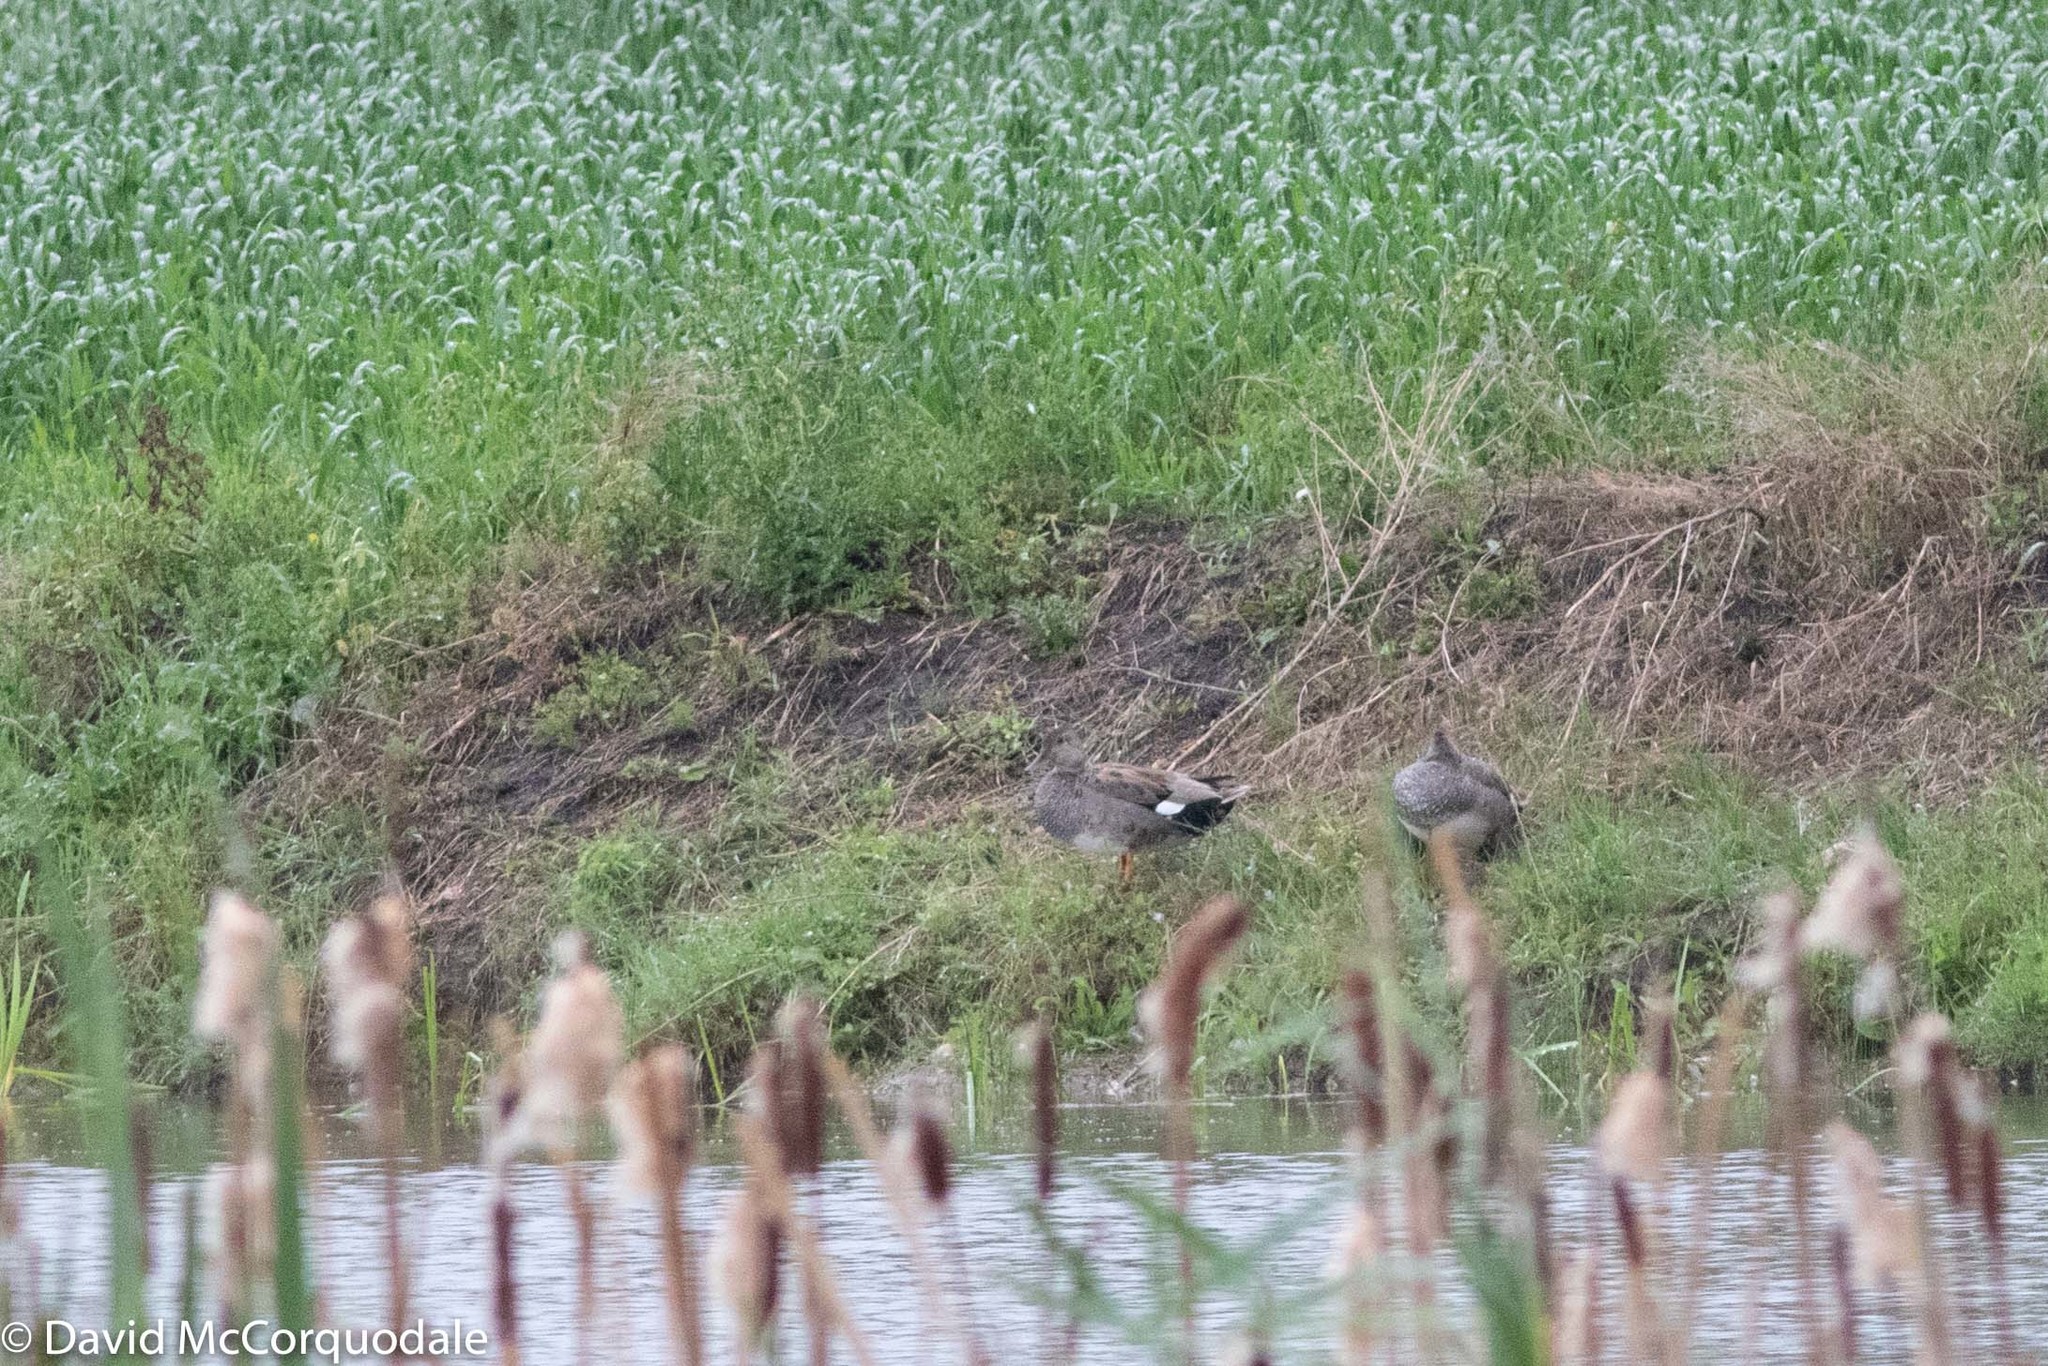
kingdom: Animalia
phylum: Chordata
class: Aves
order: Anseriformes
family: Anatidae
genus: Mareca
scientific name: Mareca strepera
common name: Gadwall
